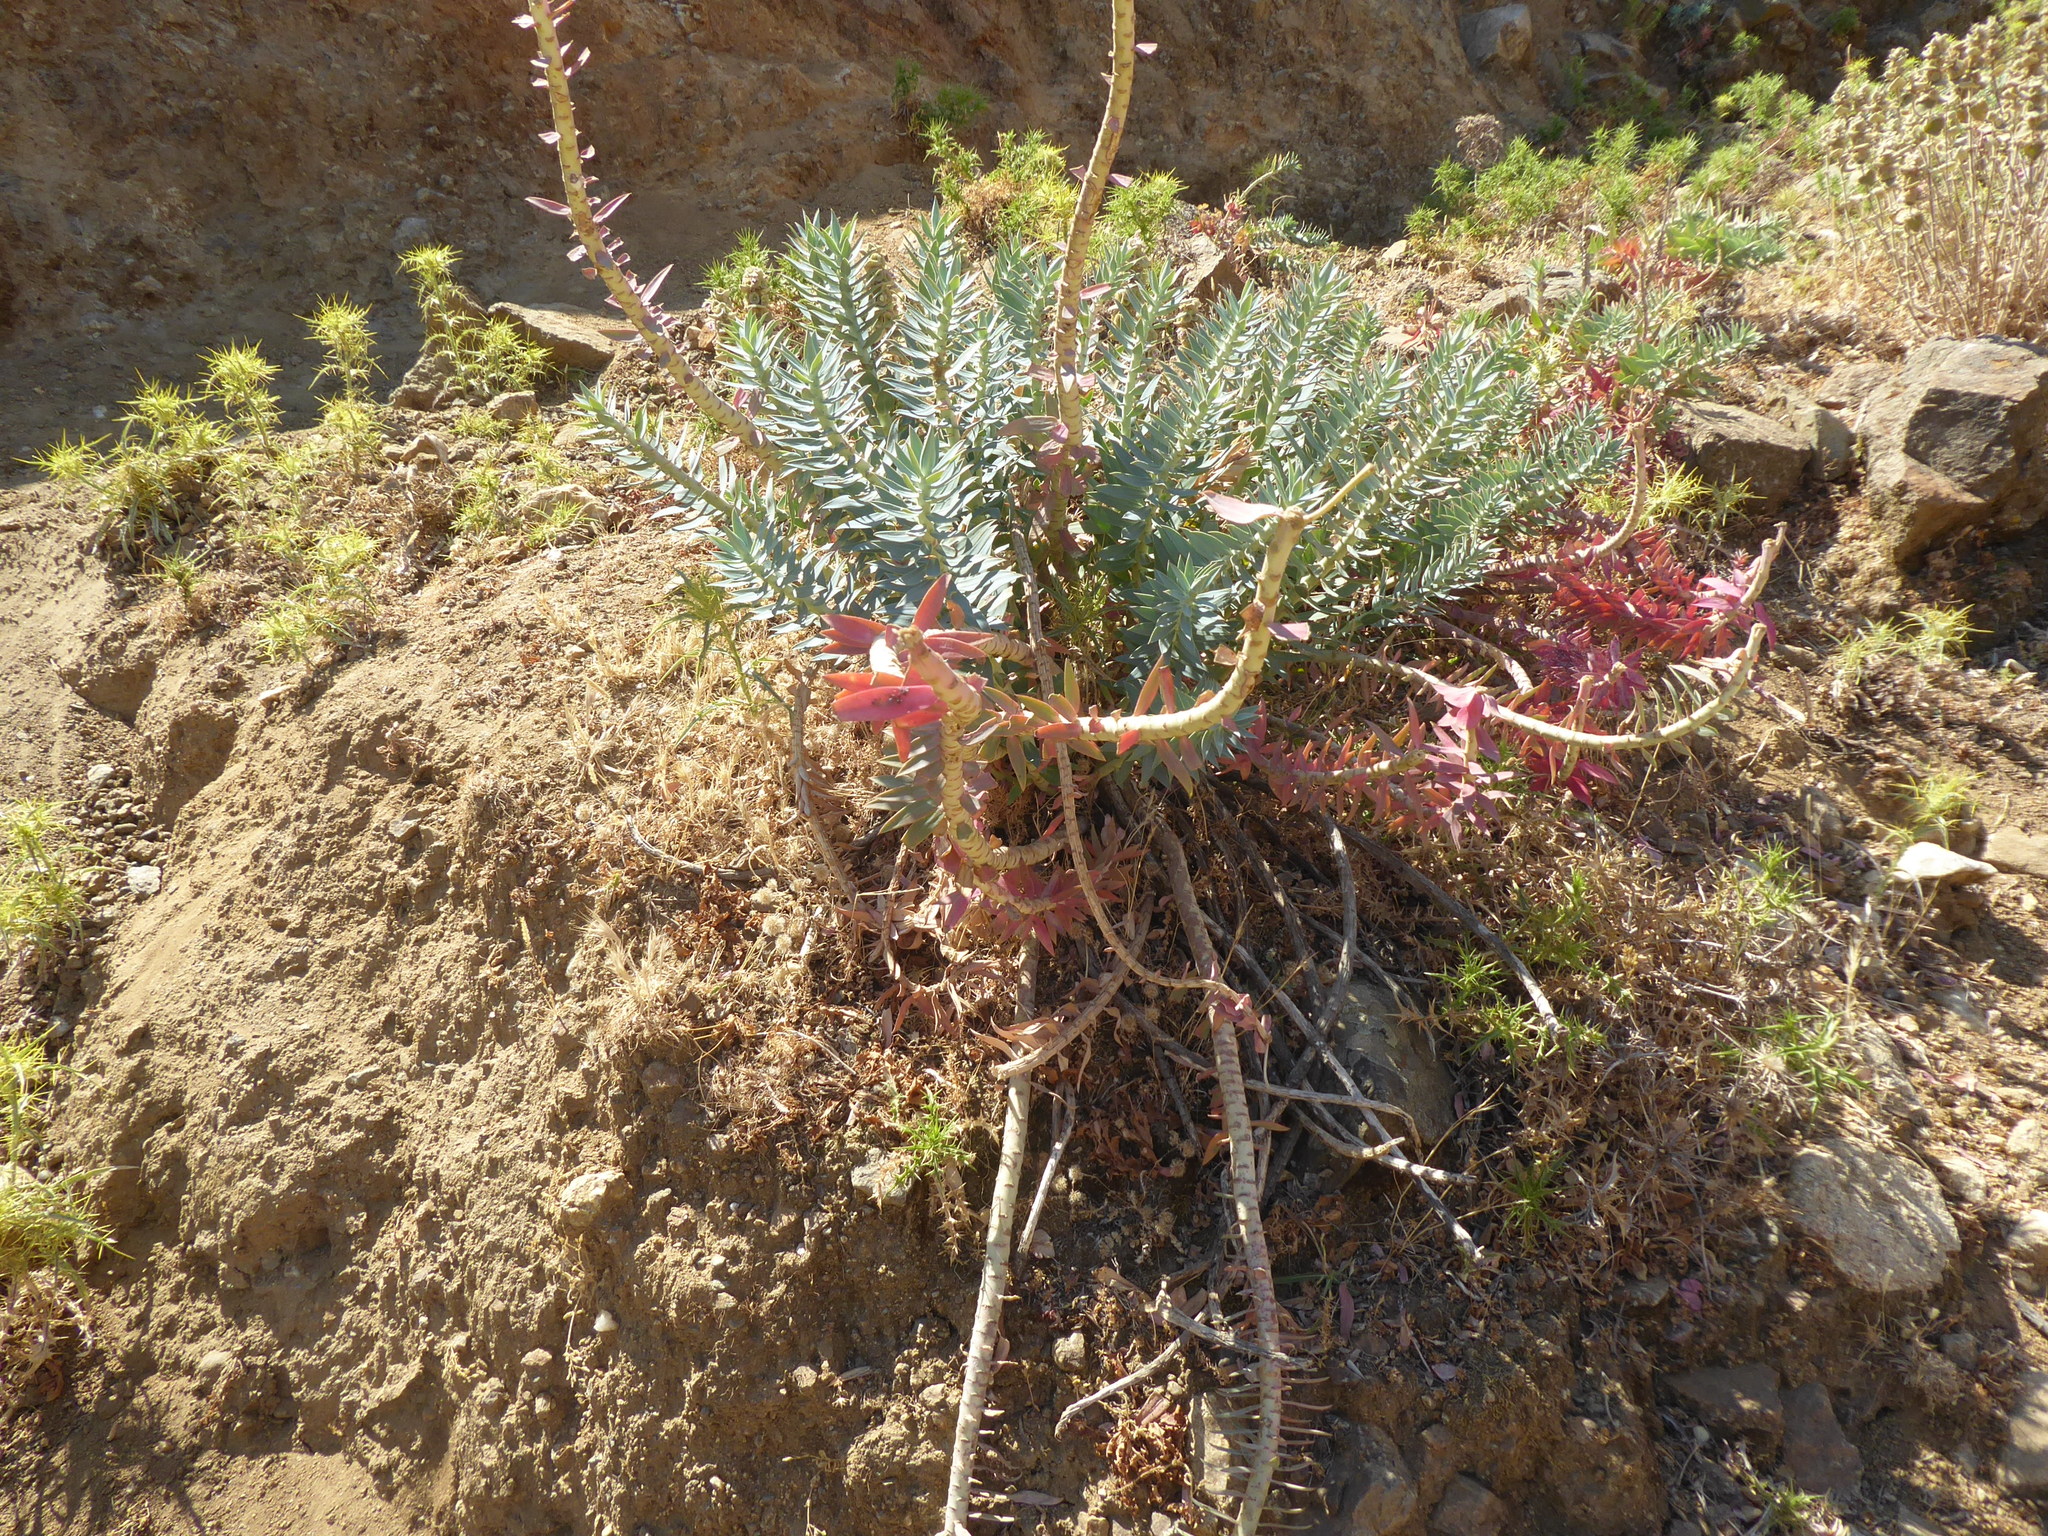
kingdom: Plantae
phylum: Tracheophyta
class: Magnoliopsida
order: Malpighiales
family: Euphorbiaceae
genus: Euphorbia
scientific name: Euphorbia rigida
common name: Upright myrtle spurge
